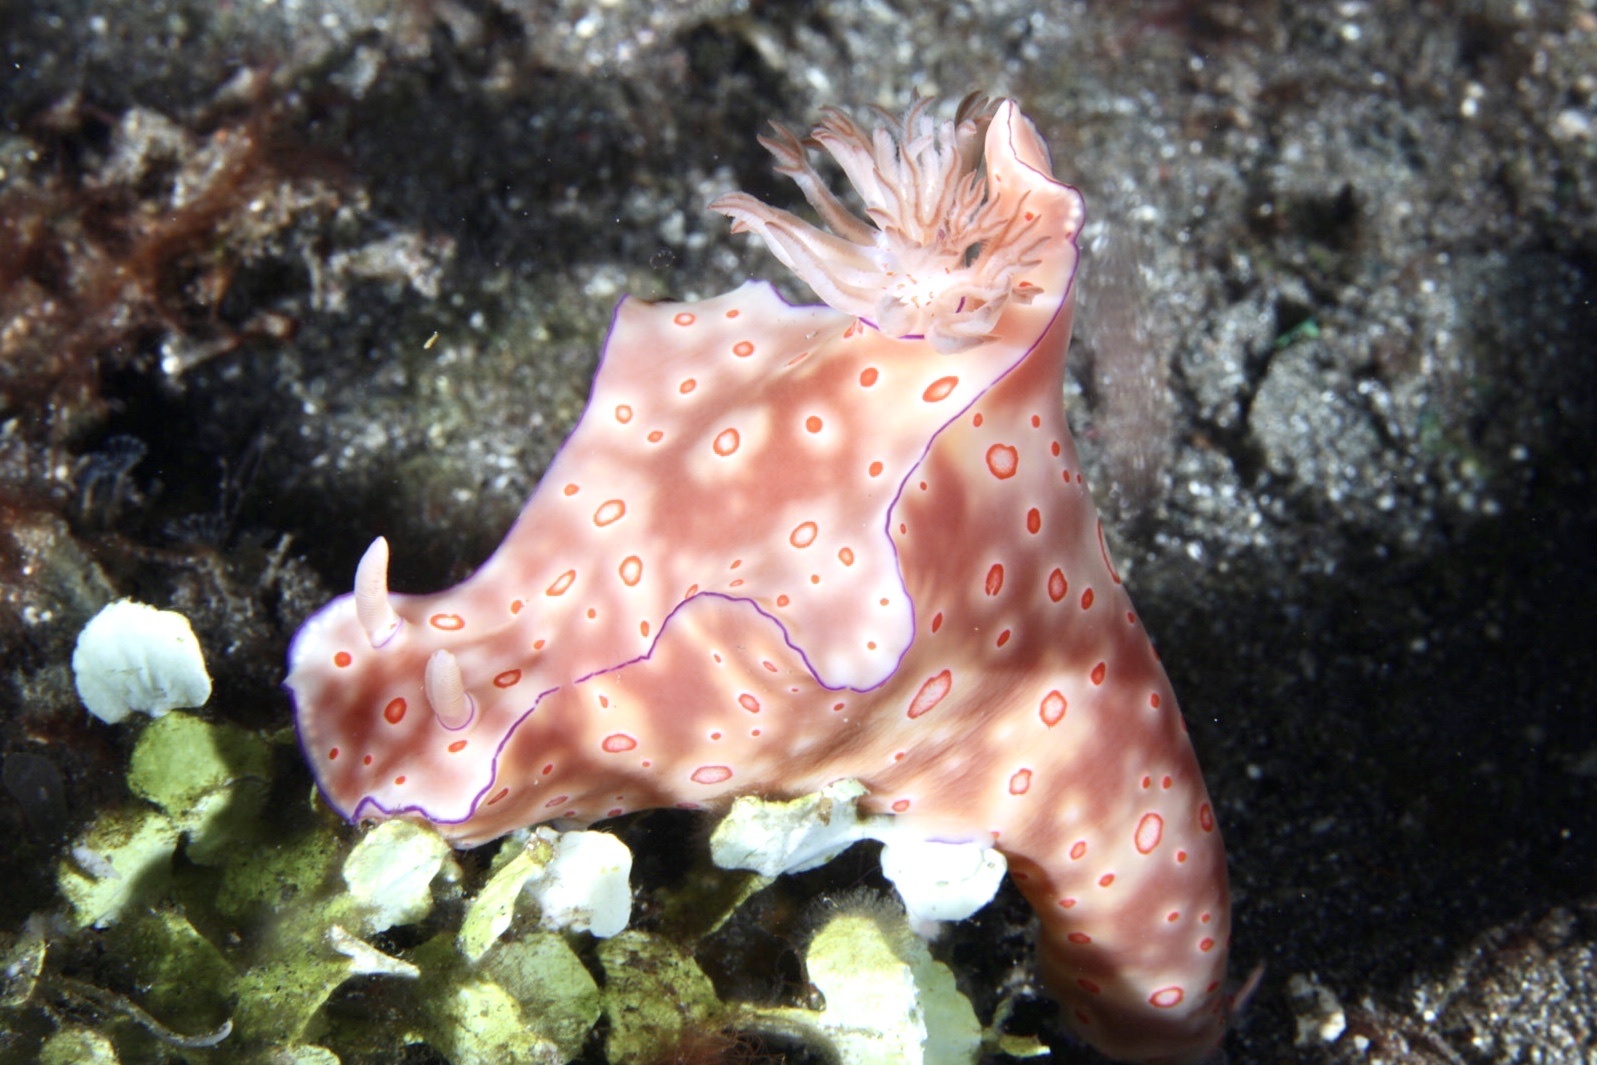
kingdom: Animalia
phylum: Mollusca
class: Gastropoda
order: Nudibranchia
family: Chromodorididae
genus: Ceratosoma
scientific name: Ceratosoma trilobatum
